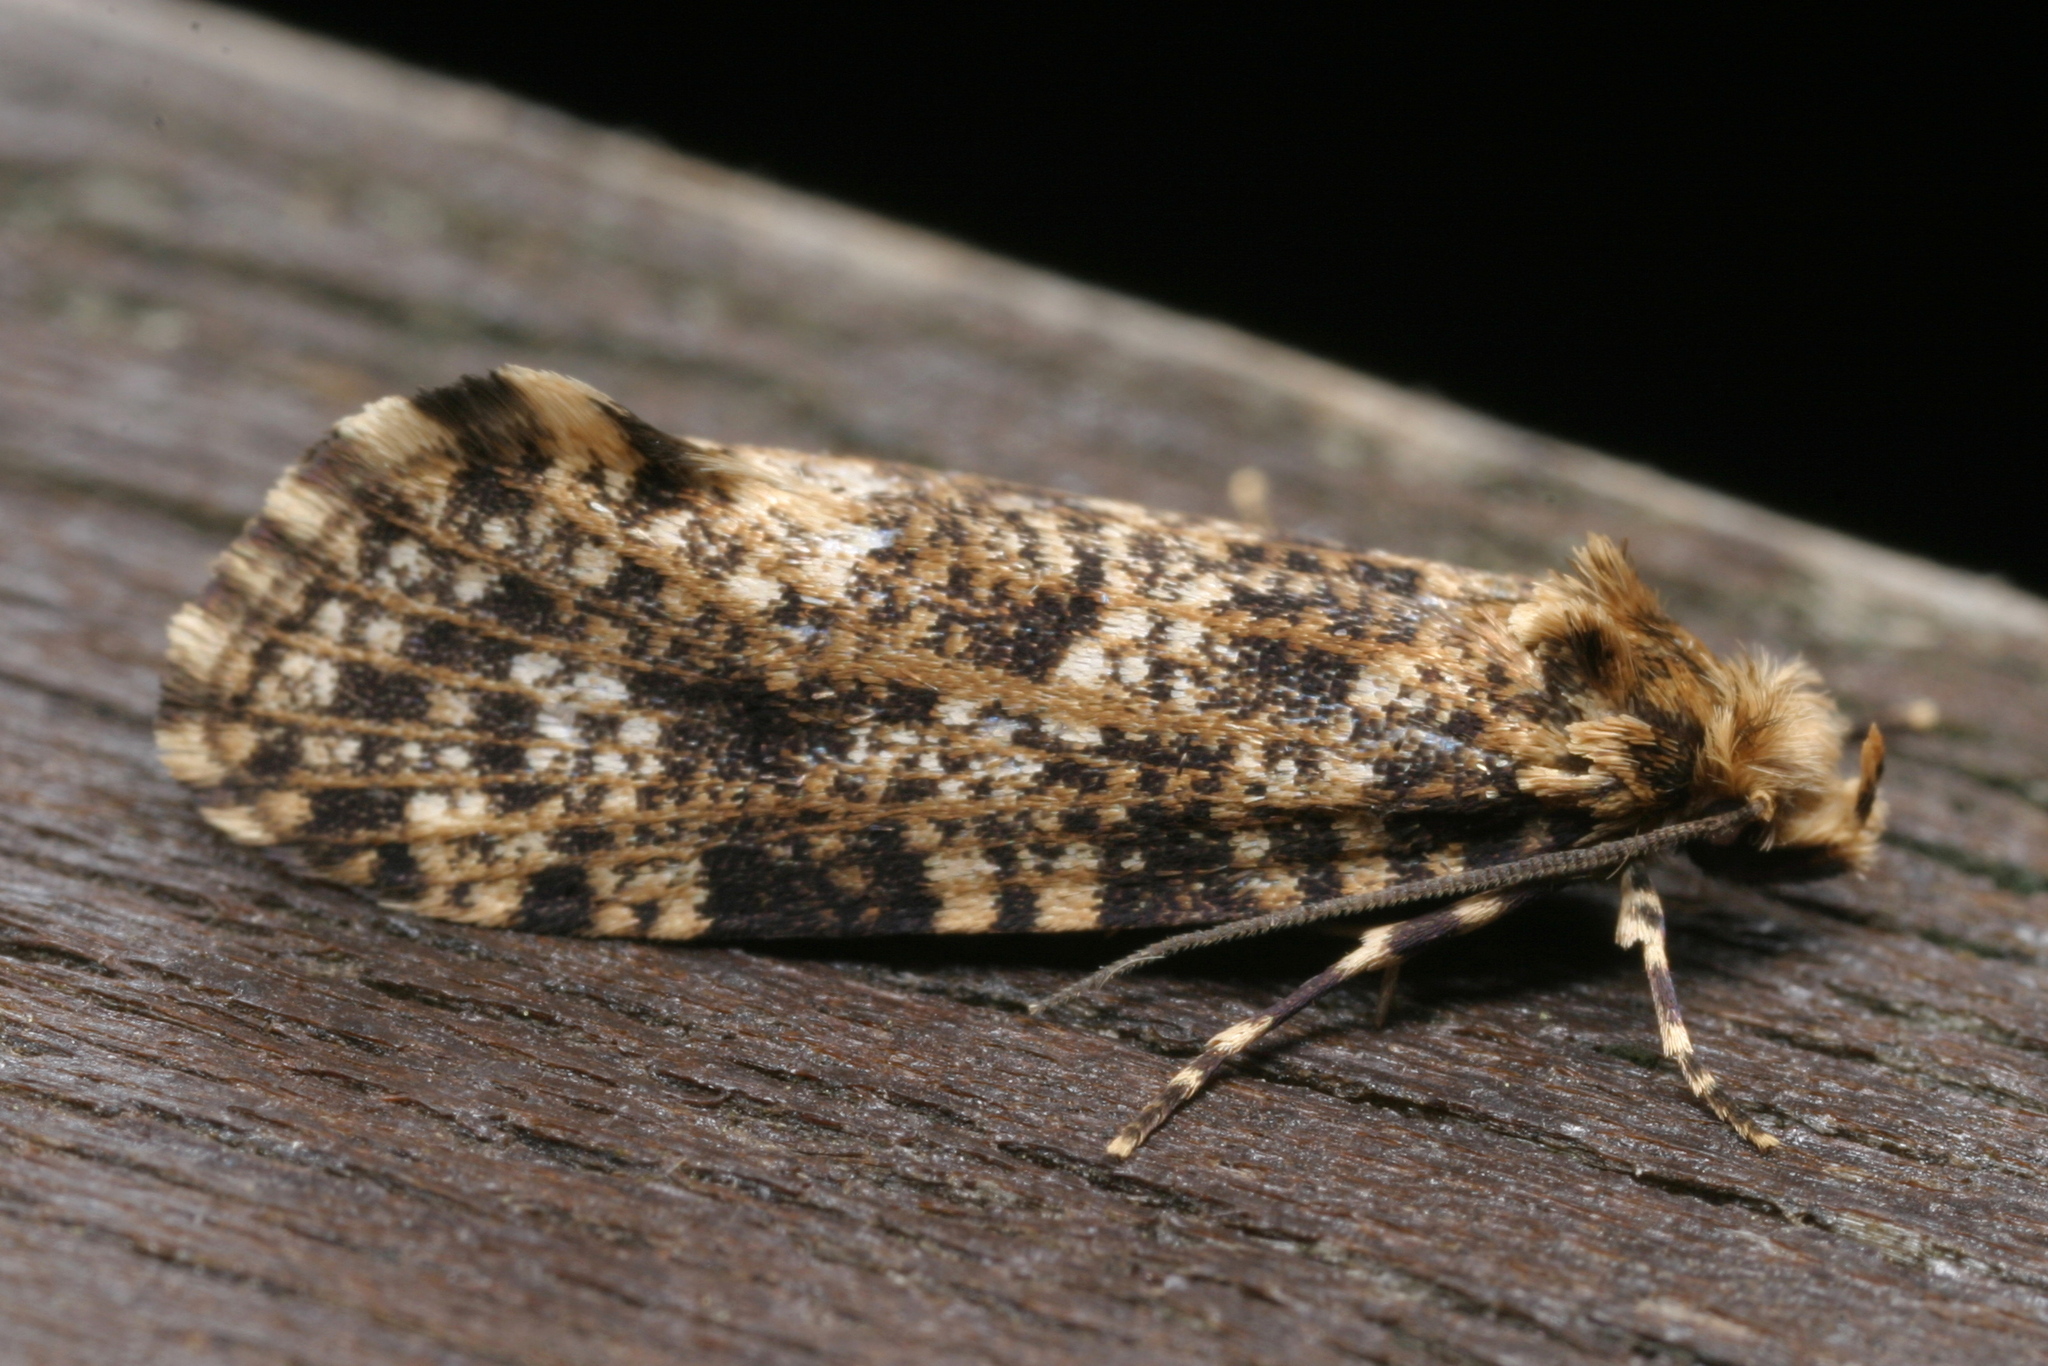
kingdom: Animalia
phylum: Arthropoda
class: Insecta
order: Lepidoptera
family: Tineidae
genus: Montescardia
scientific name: Montescardia tessulatellus
